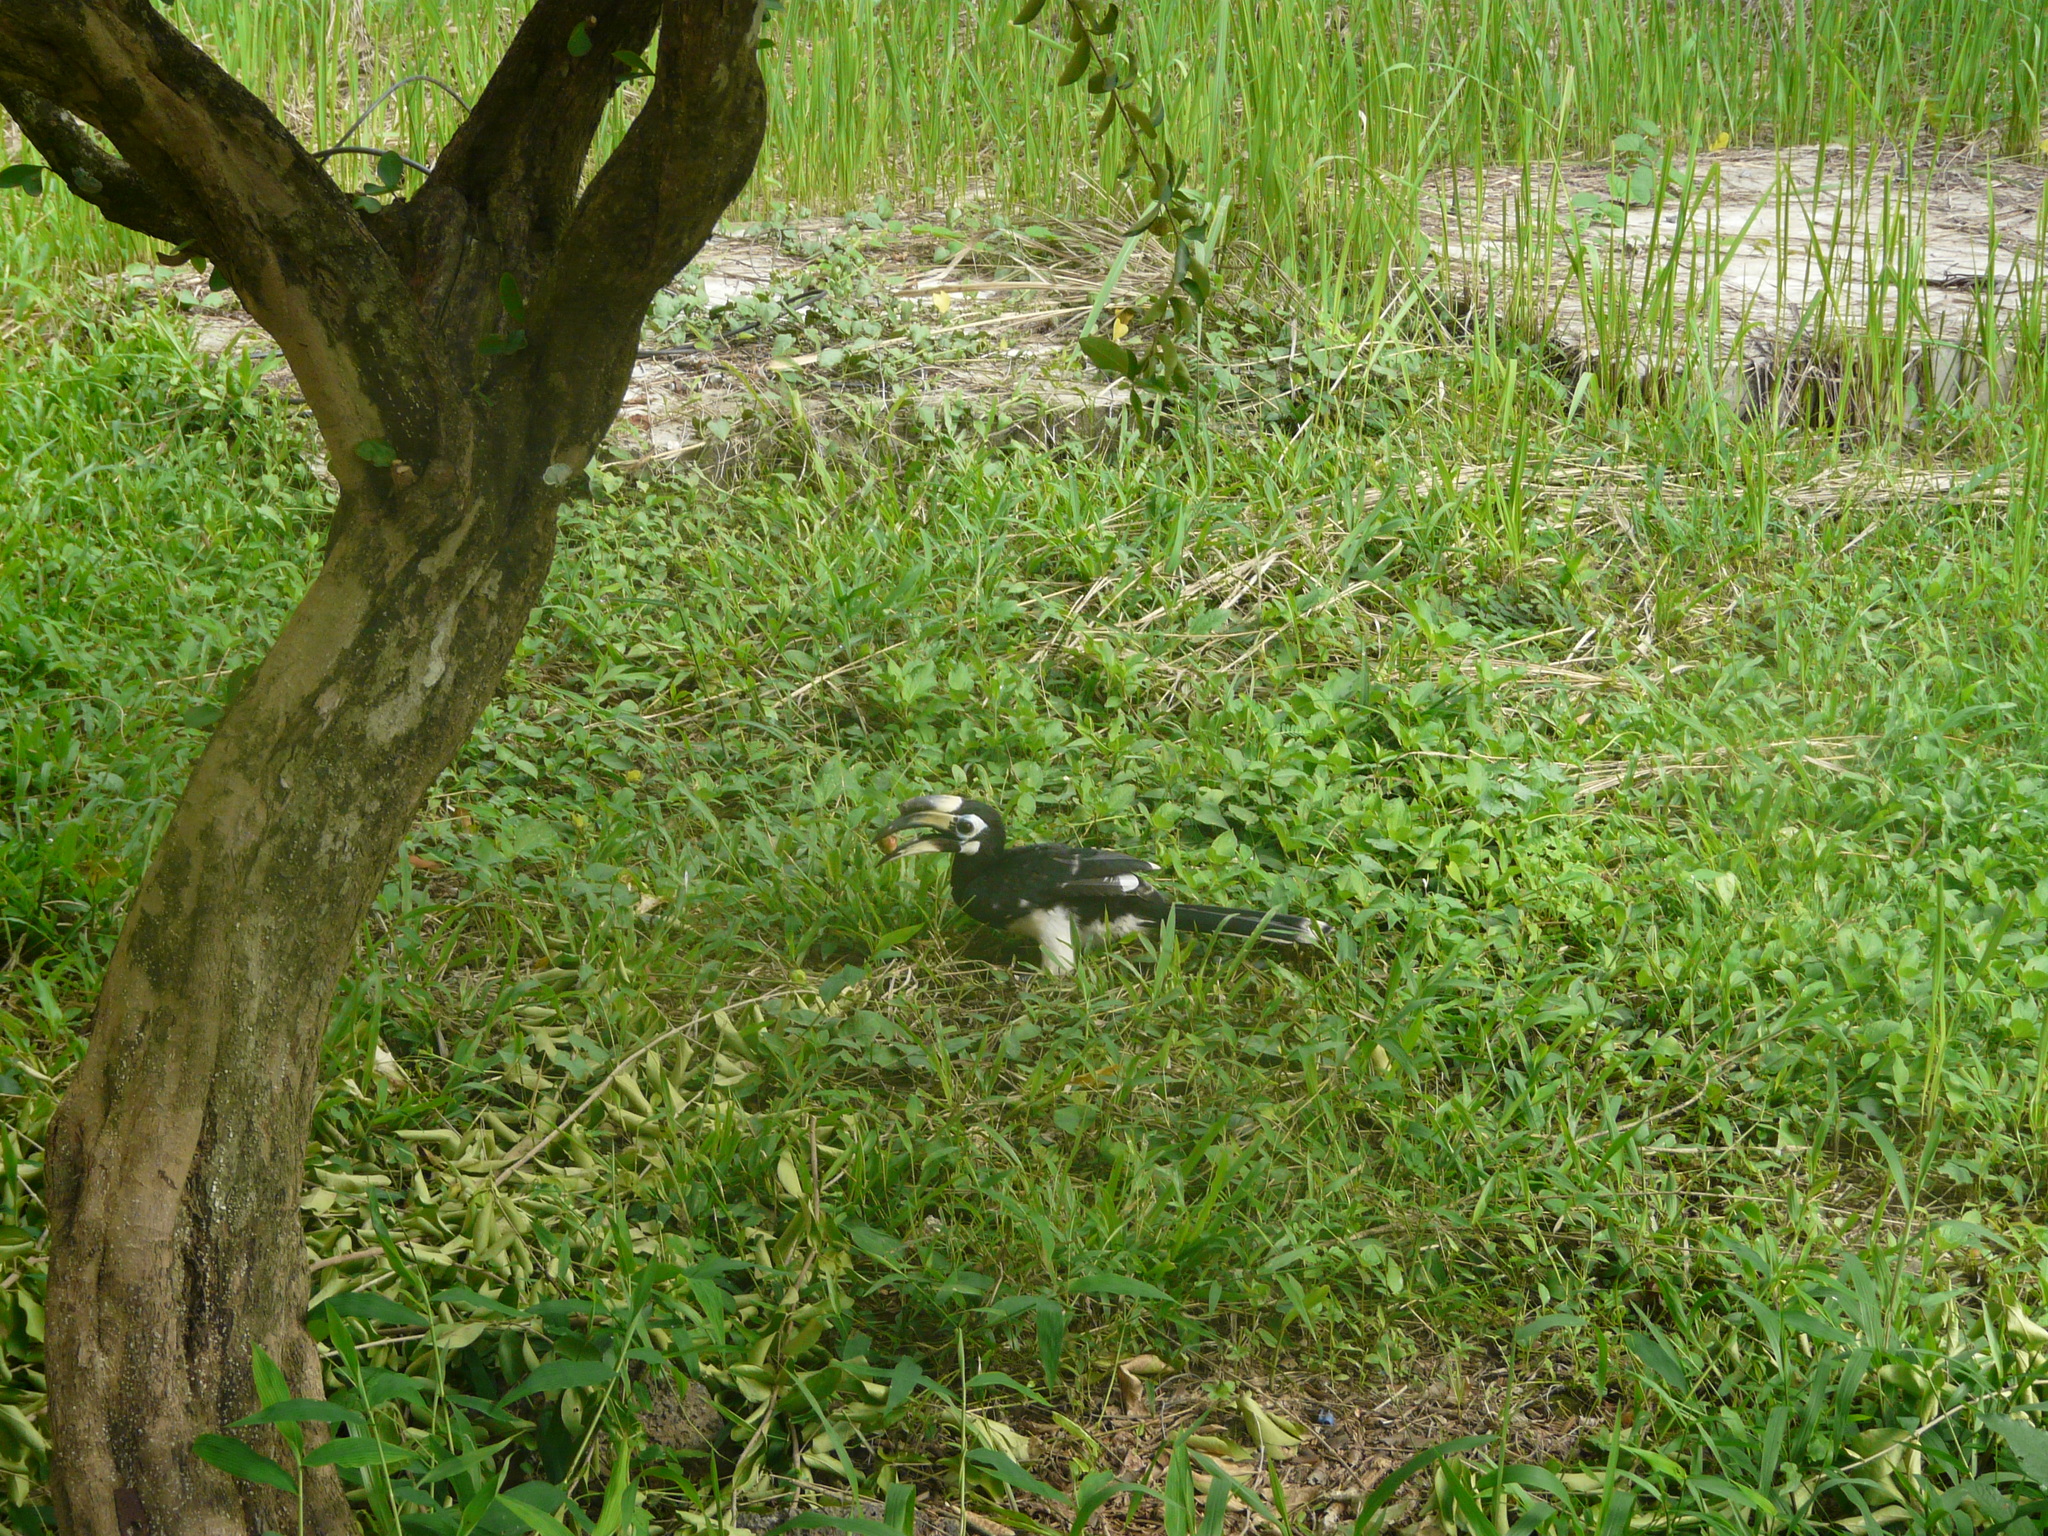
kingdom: Animalia
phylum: Chordata
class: Aves
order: Bucerotiformes
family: Bucerotidae
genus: Anthracoceros
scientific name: Anthracoceros albirostris
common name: Oriental pied-hornbill
